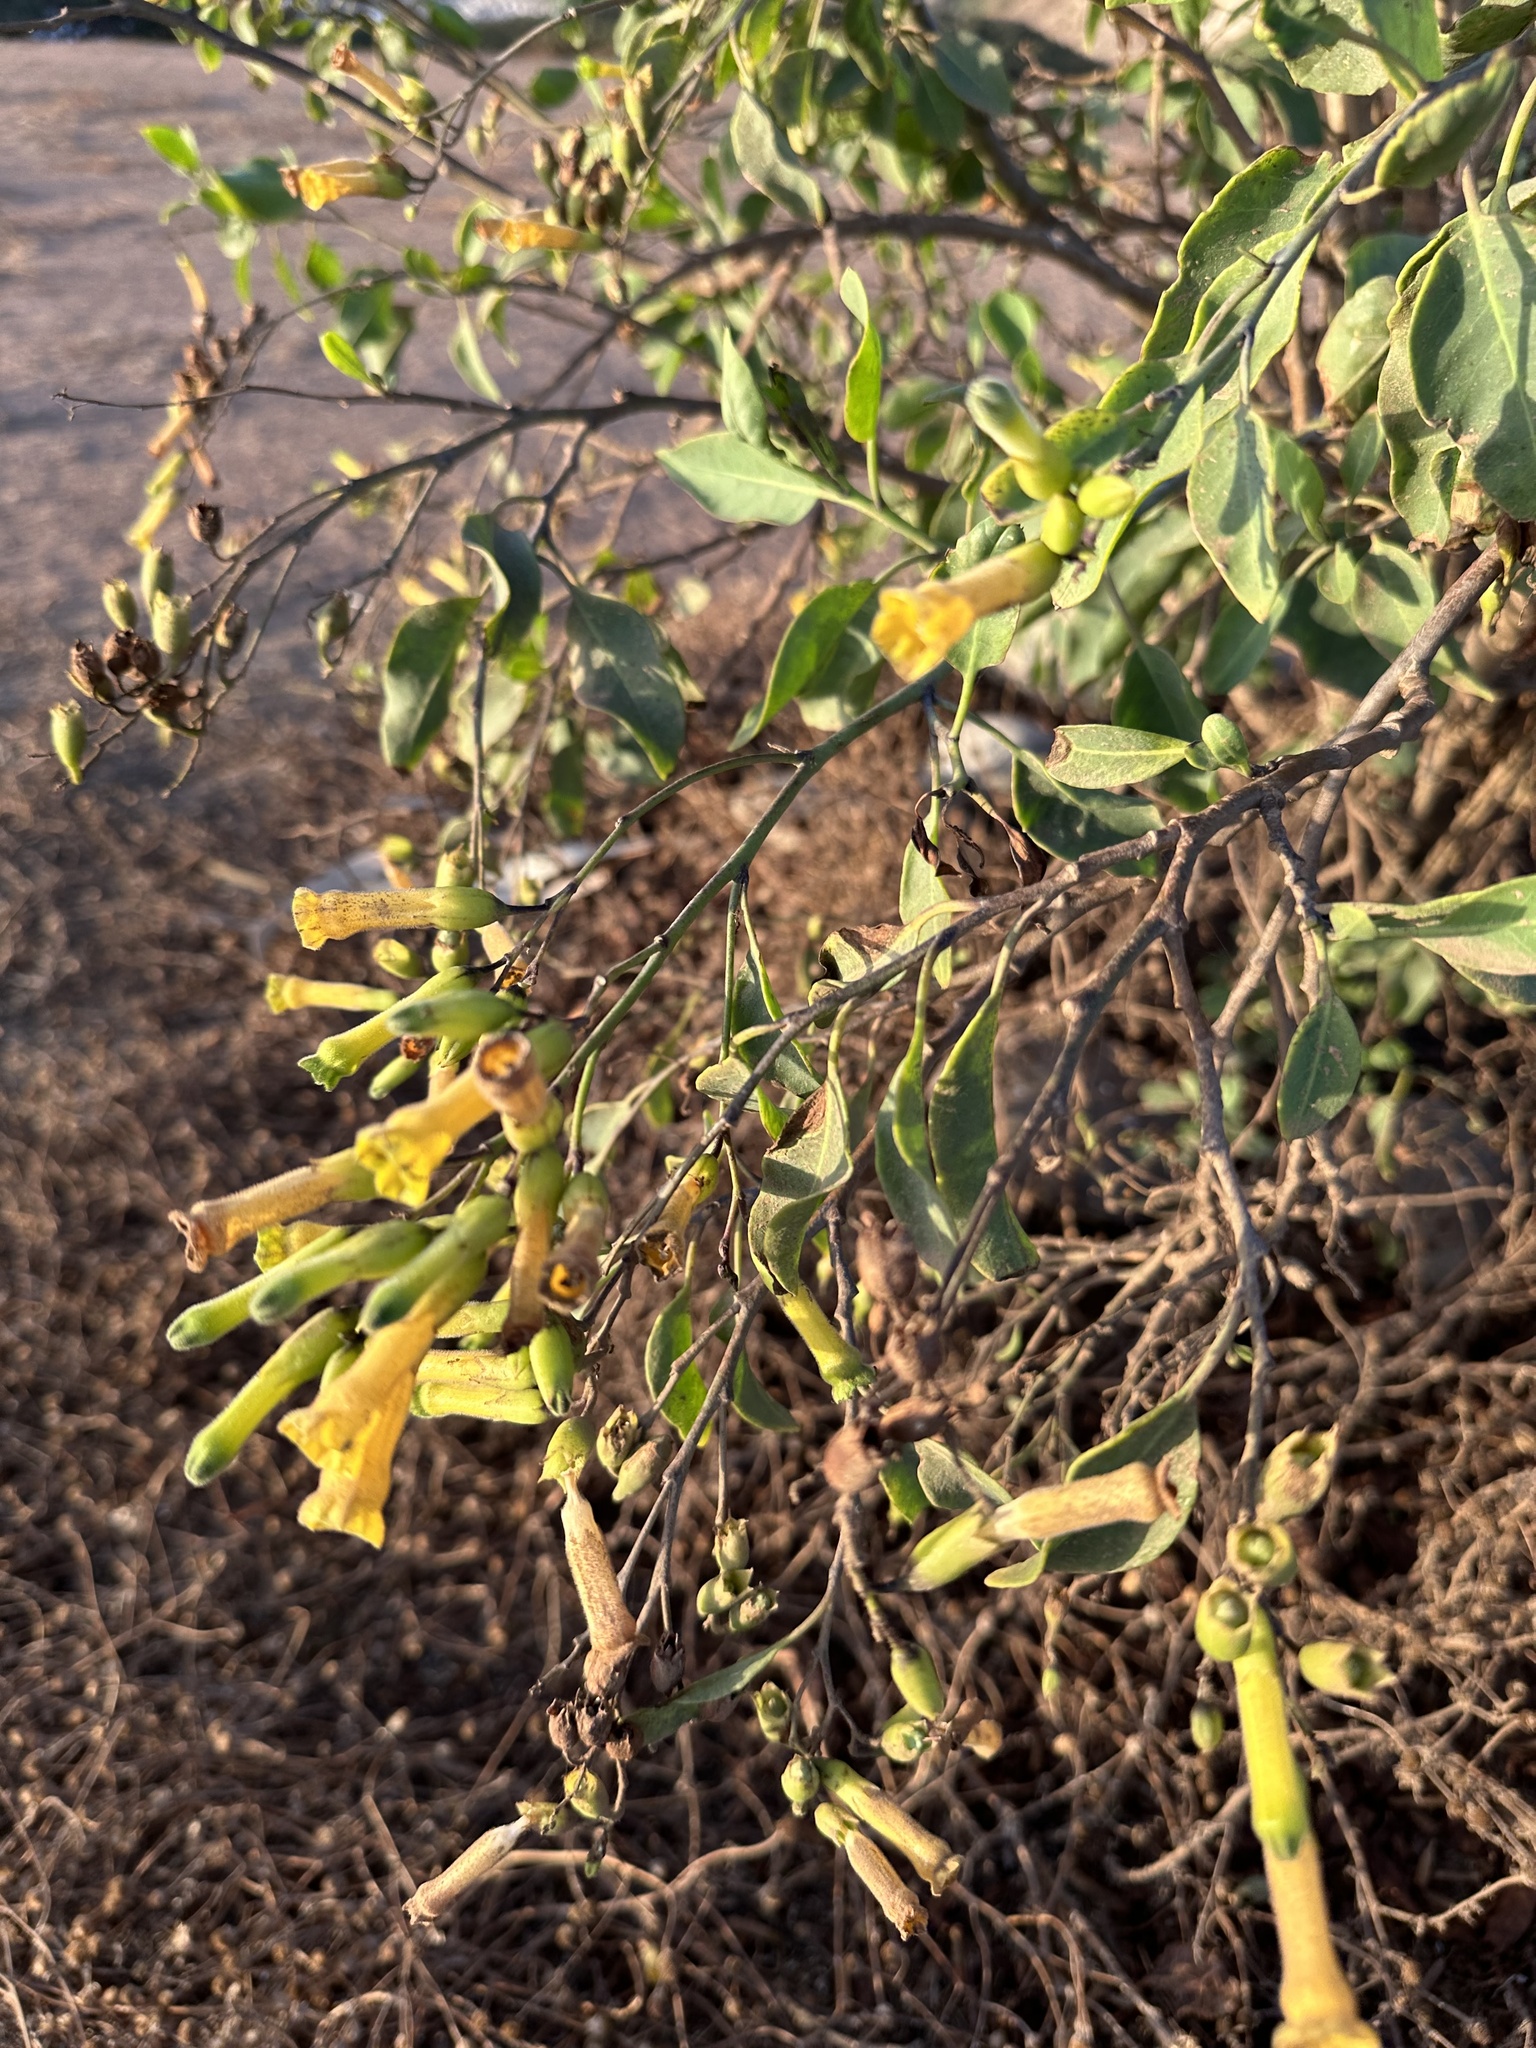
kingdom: Plantae
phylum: Tracheophyta
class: Magnoliopsida
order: Solanales
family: Solanaceae
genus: Nicotiana
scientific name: Nicotiana glauca
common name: Tree tobacco
